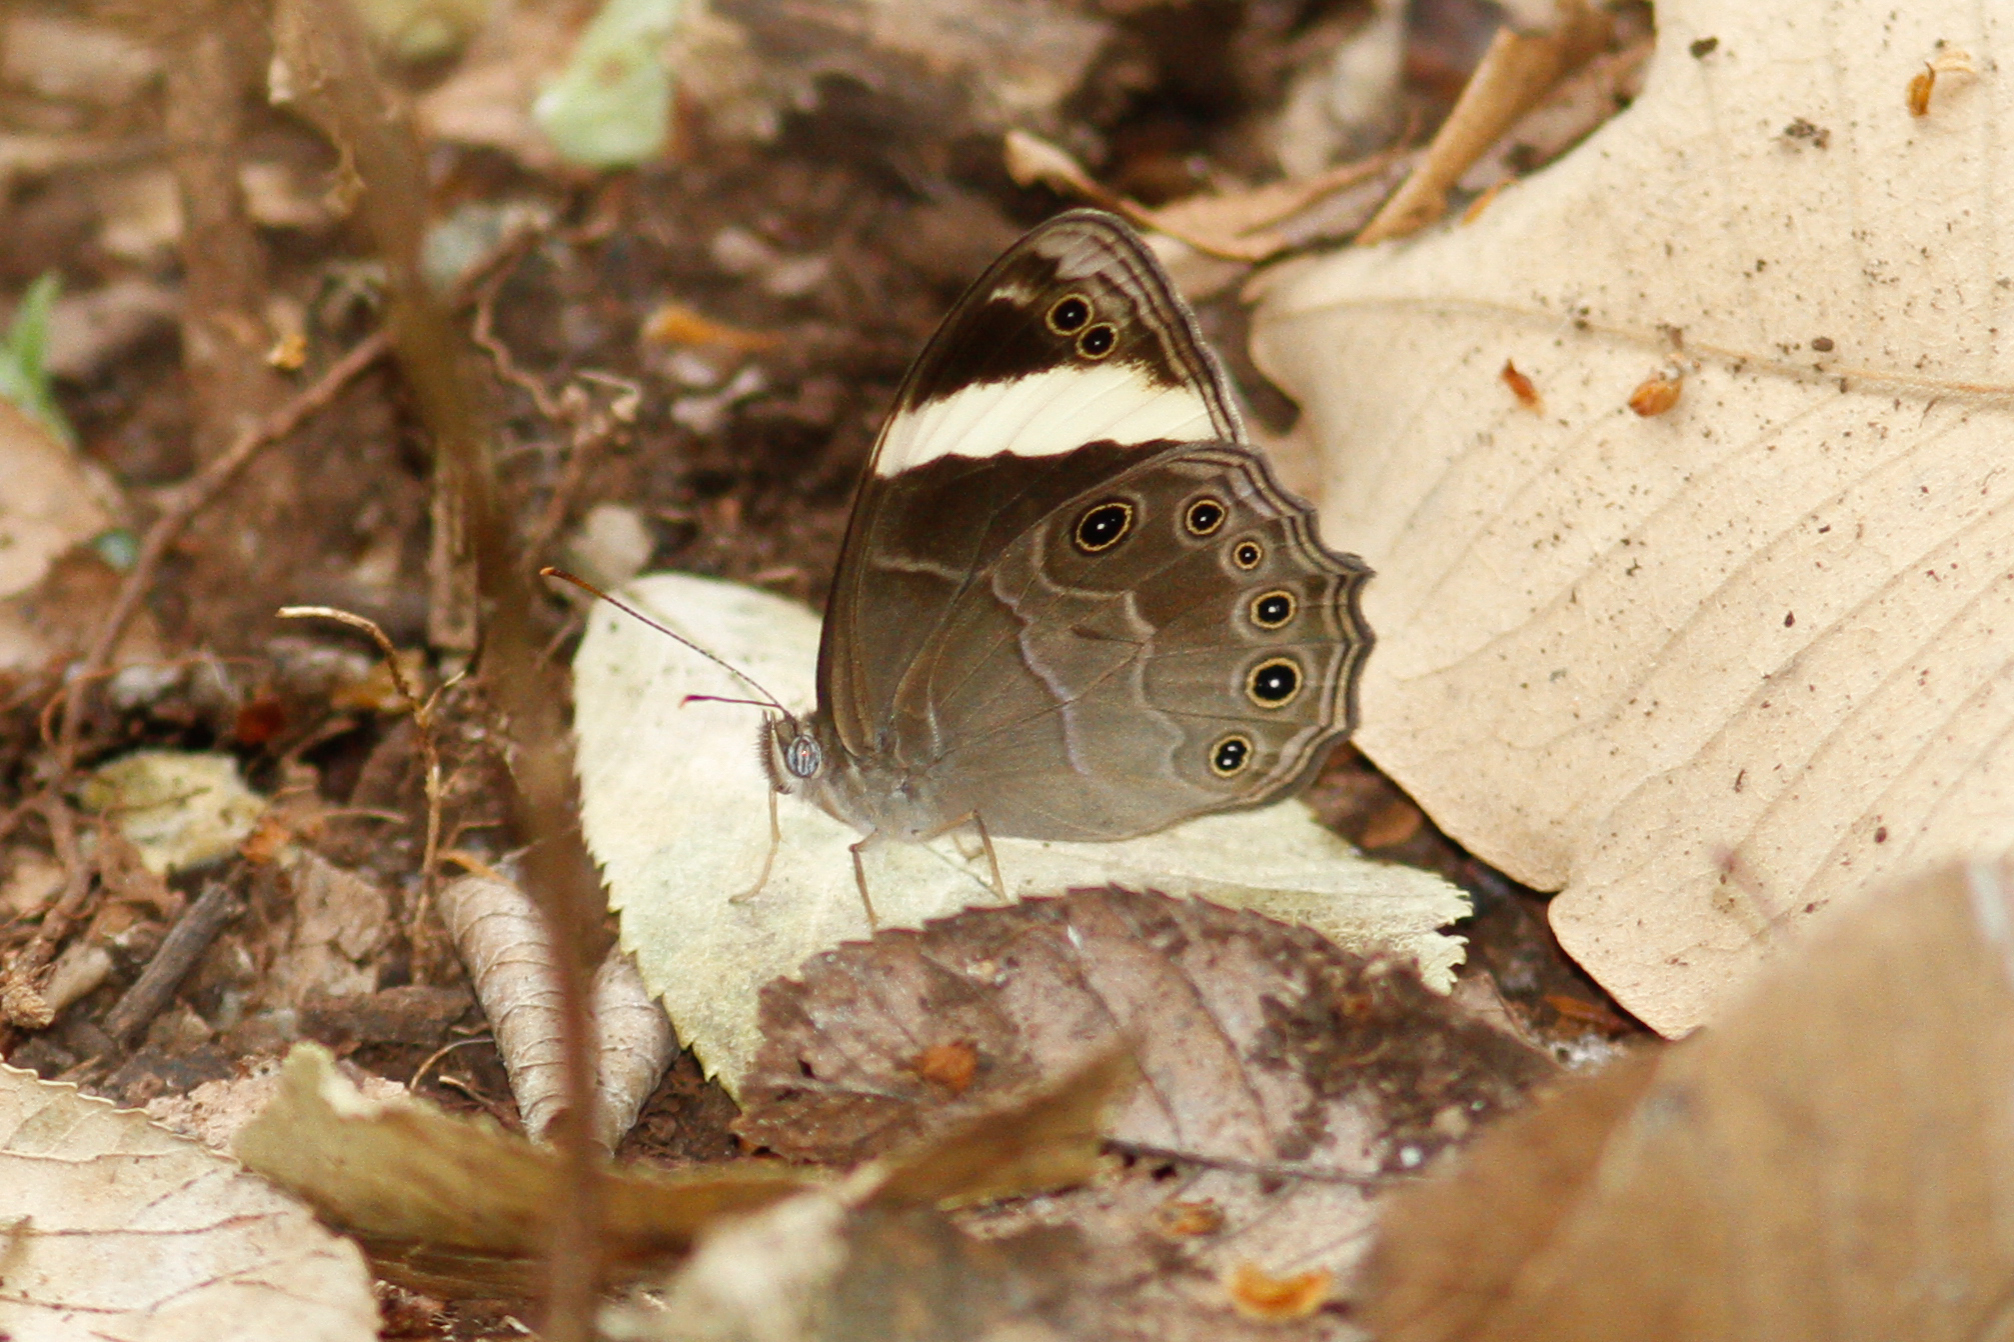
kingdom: Animalia
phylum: Arthropoda
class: Insecta
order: Lepidoptera
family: Nymphalidae
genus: Lethe
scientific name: Lethe verma
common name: Straight-banded treebrown
